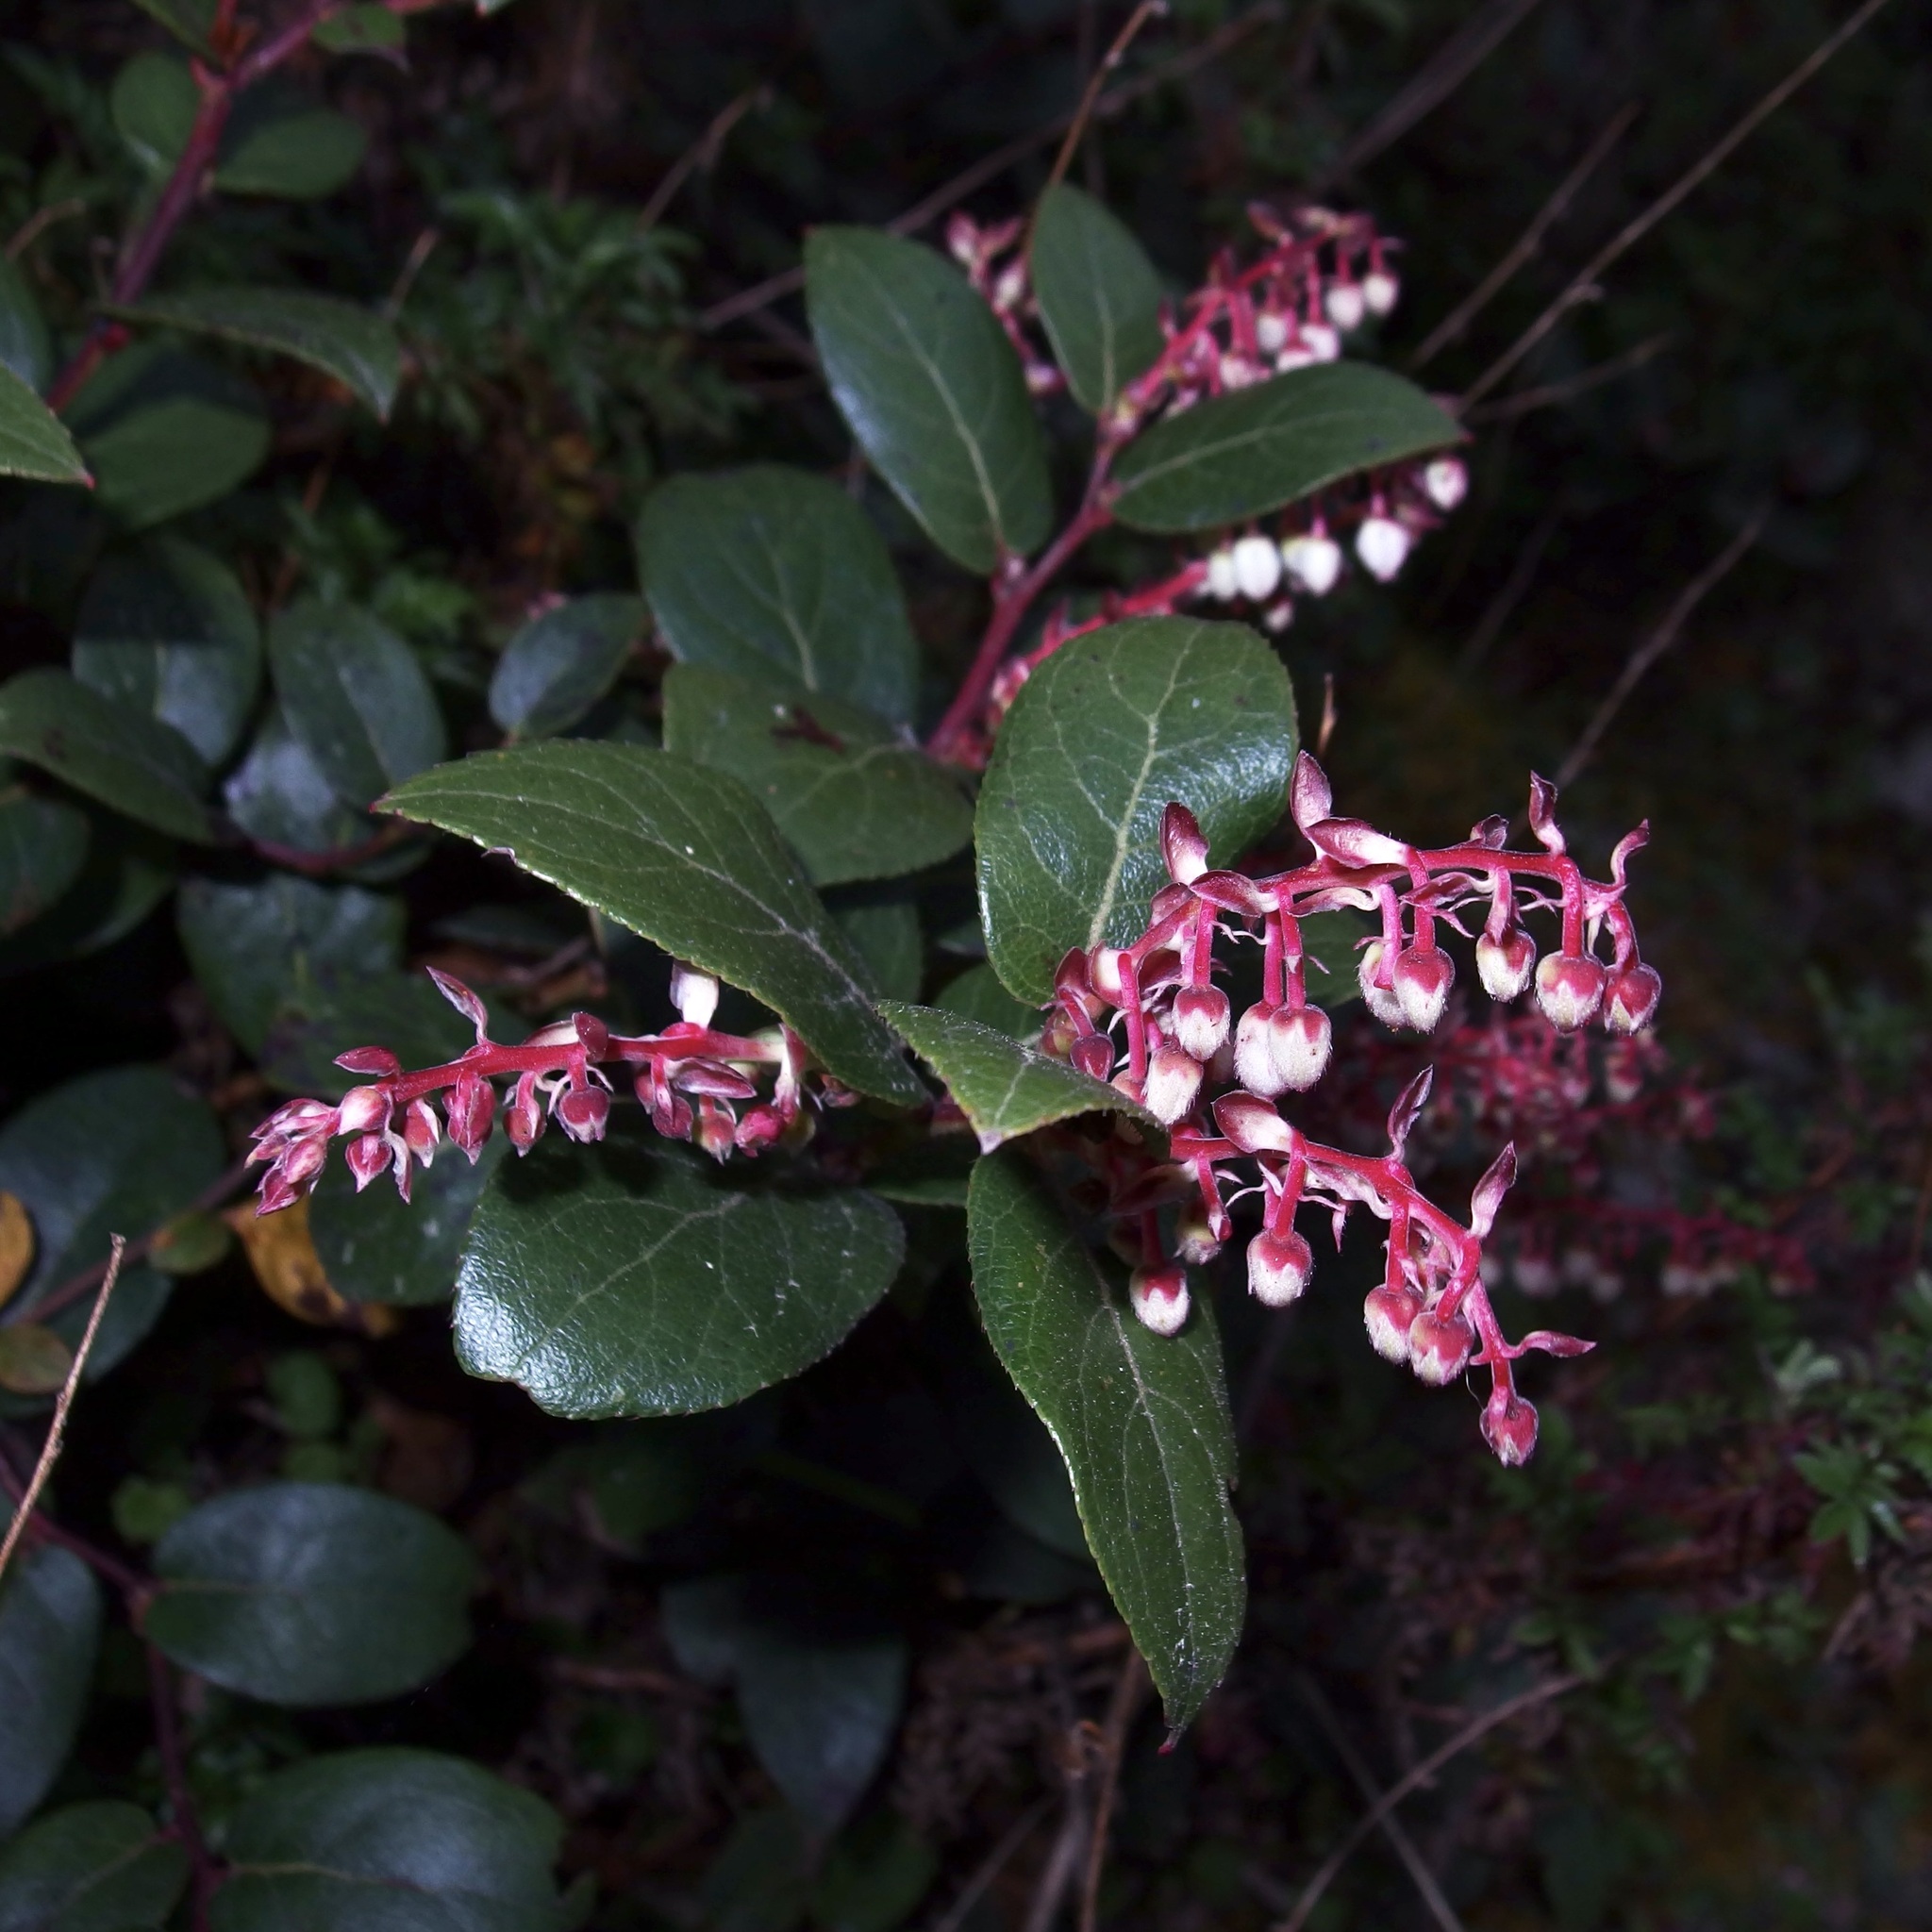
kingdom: Plantae
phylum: Tracheophyta
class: Magnoliopsida
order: Ericales
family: Ericaceae
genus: Gaultheria
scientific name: Gaultheria erecta
